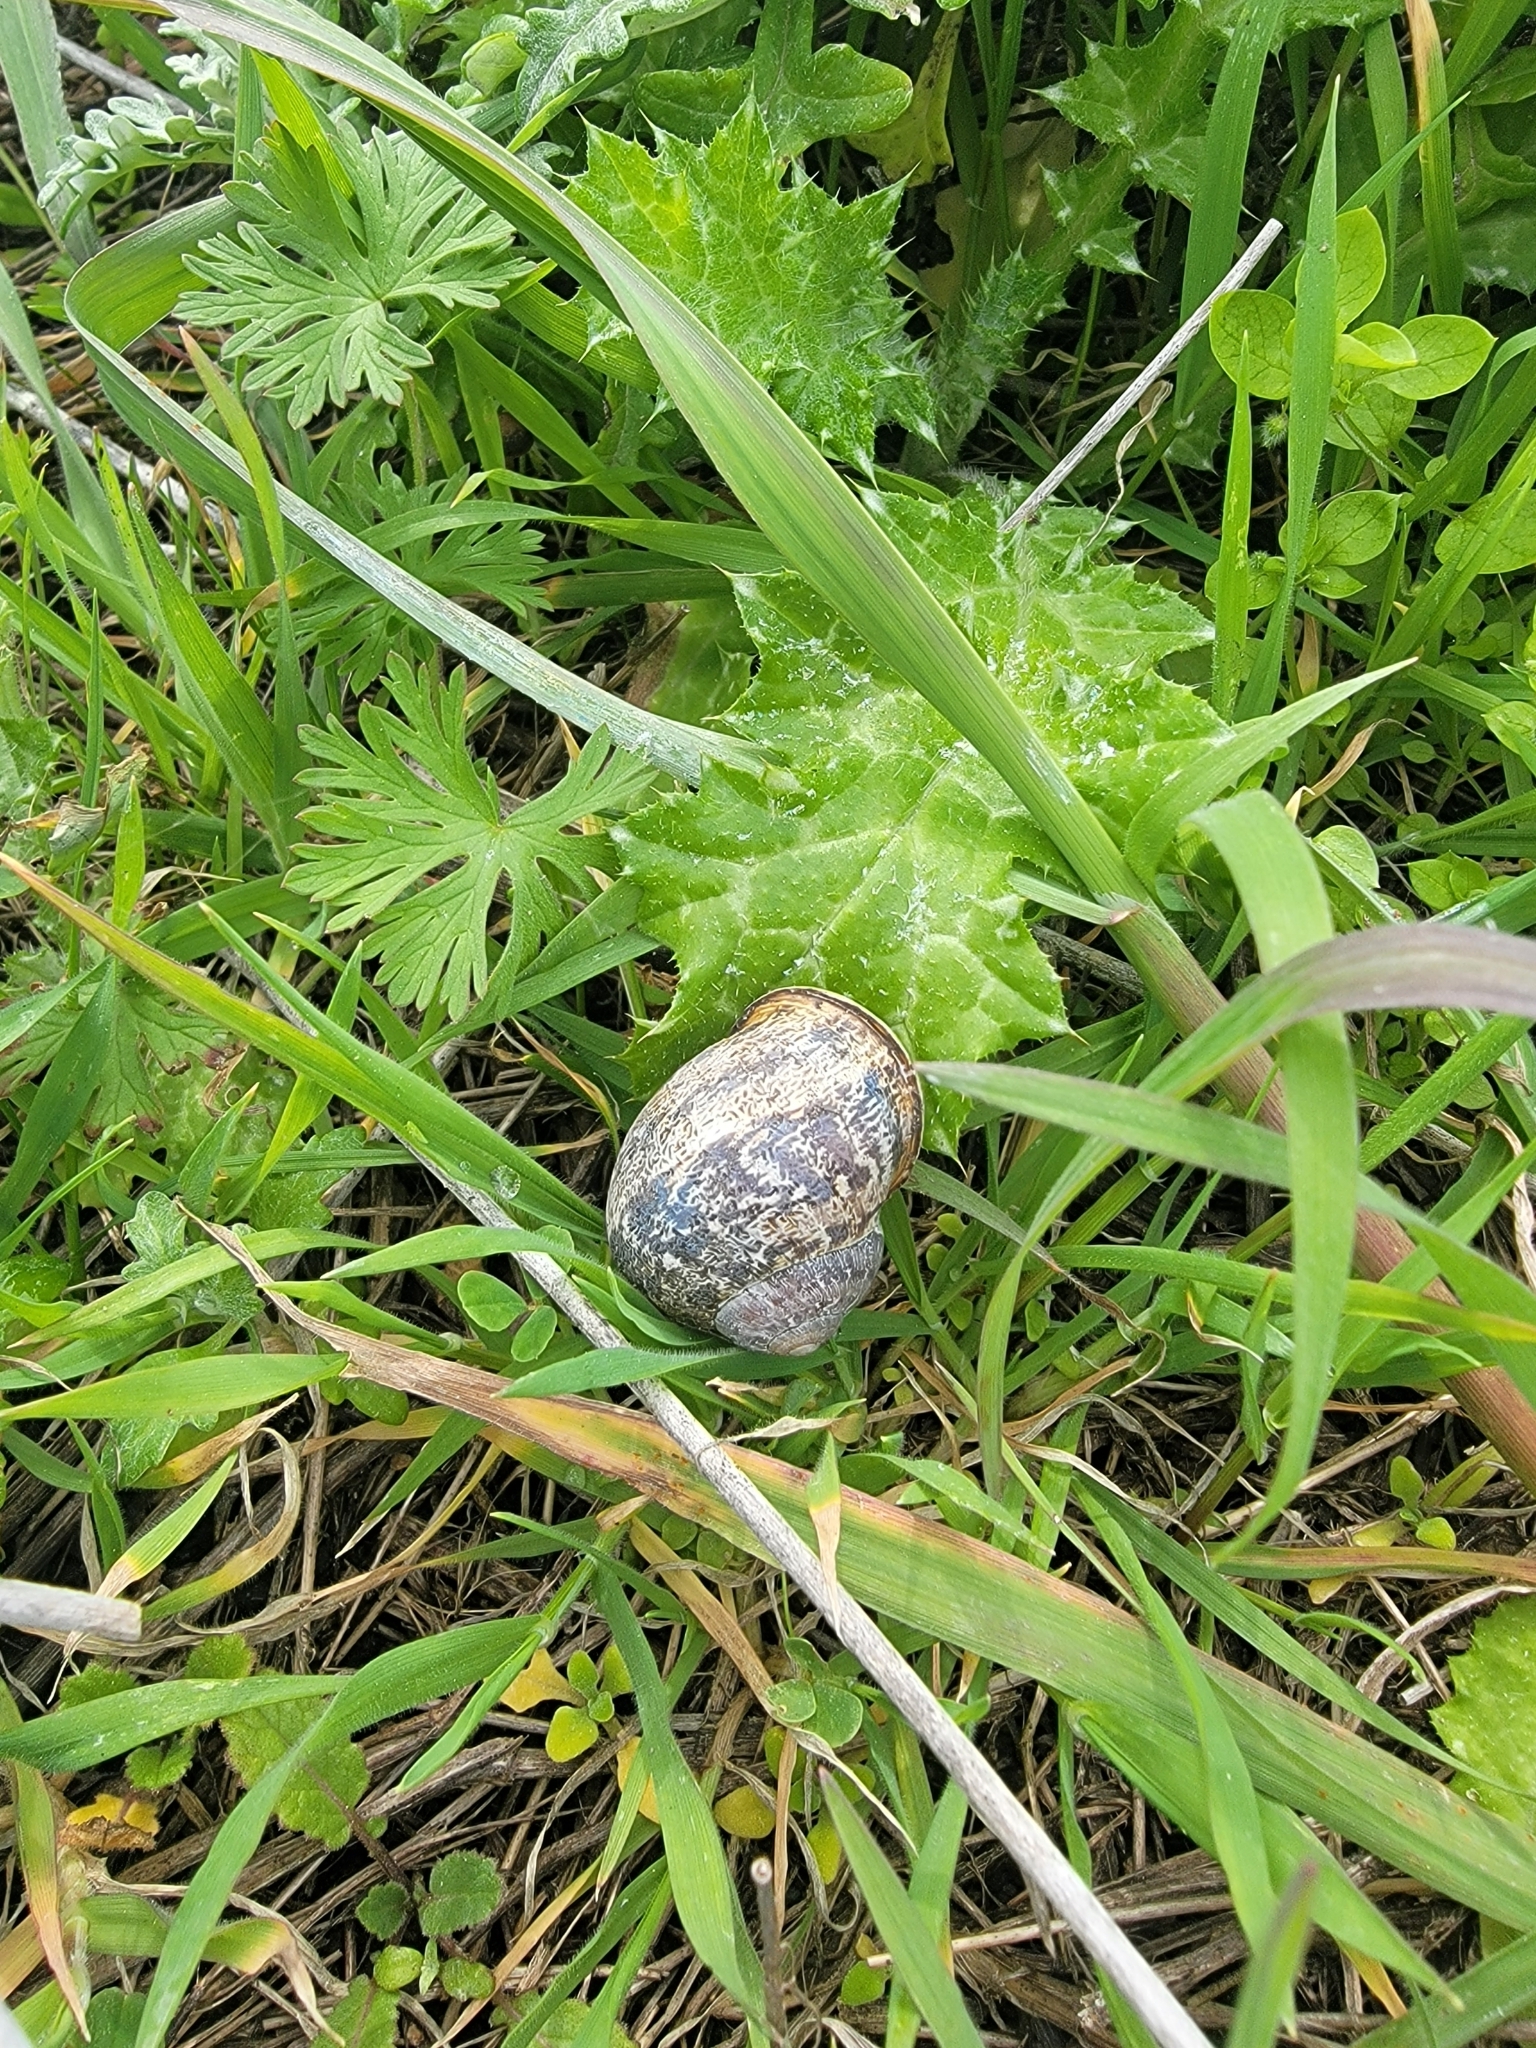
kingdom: Animalia
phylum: Mollusca
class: Gastropoda
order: Stylommatophora
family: Helicidae
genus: Cornu
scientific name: Cornu aspersum
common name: Brown garden snail
